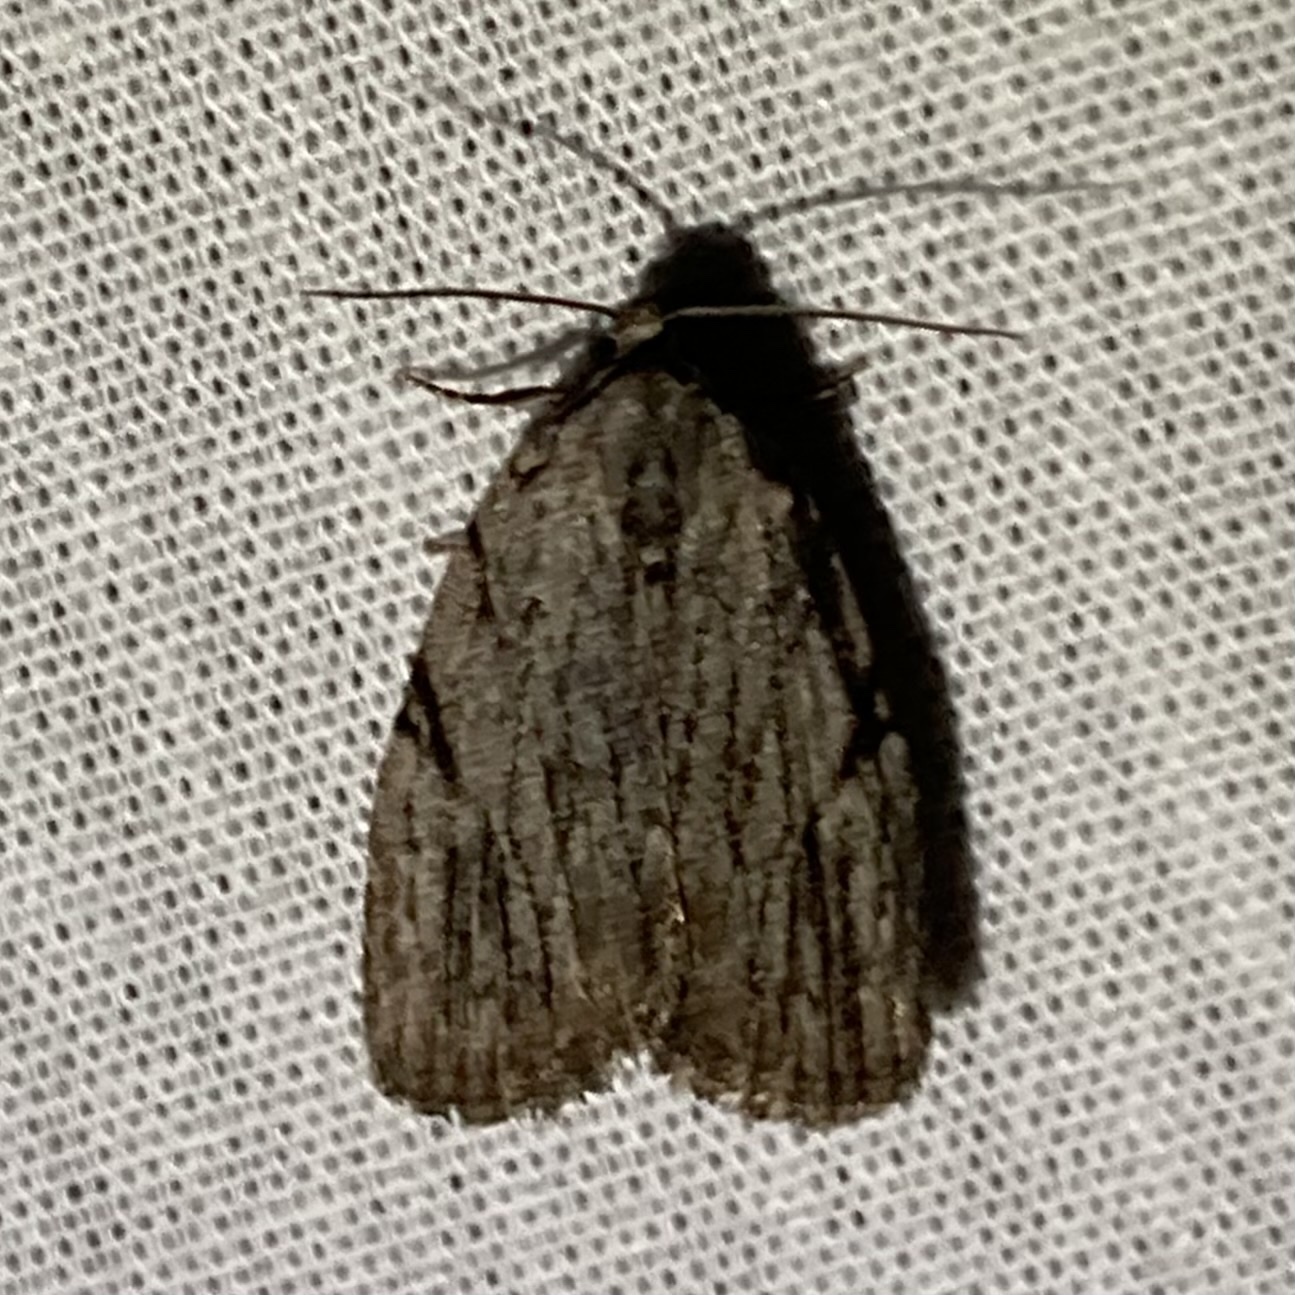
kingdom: Animalia
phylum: Arthropoda
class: Insecta
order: Lepidoptera
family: Noctuidae
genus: Balsa
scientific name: Balsa tristrigella
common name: Three-lined balsa moth
